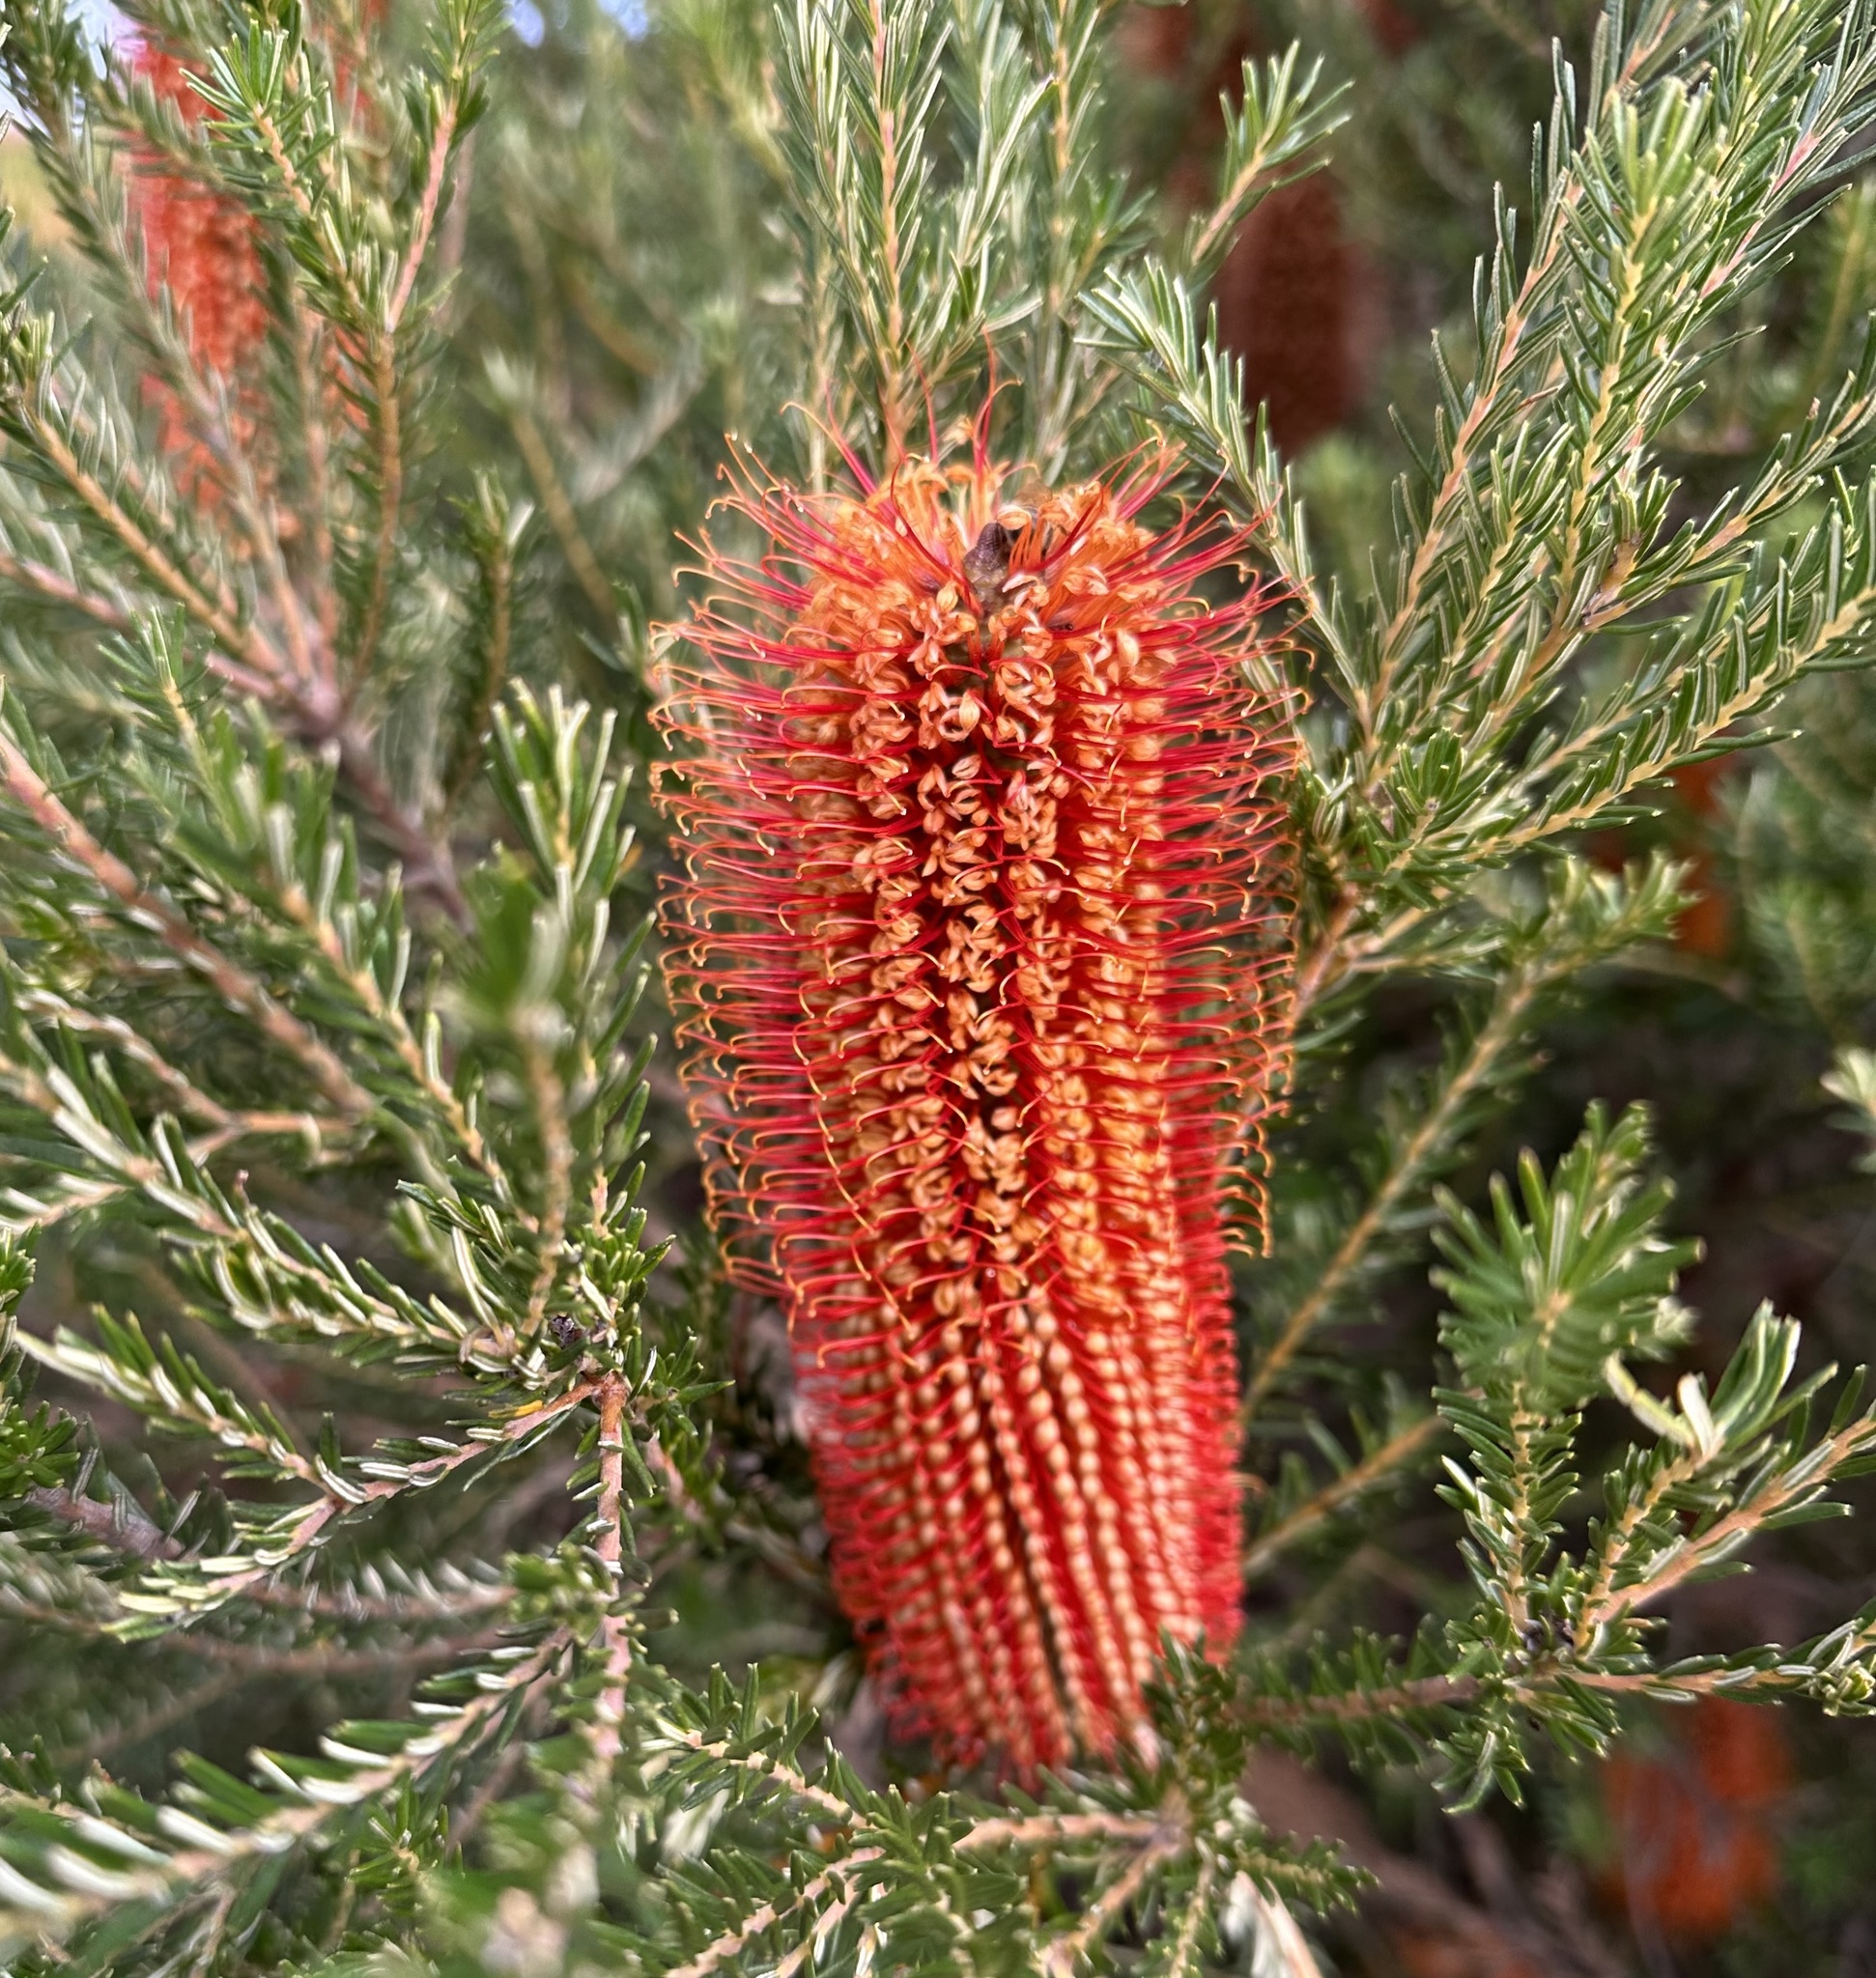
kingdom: Plantae
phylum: Tracheophyta
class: Magnoliopsida
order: Proteales
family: Proteaceae
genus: Banksia
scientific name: Banksia ericifolia
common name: Heath-leaf banksia
